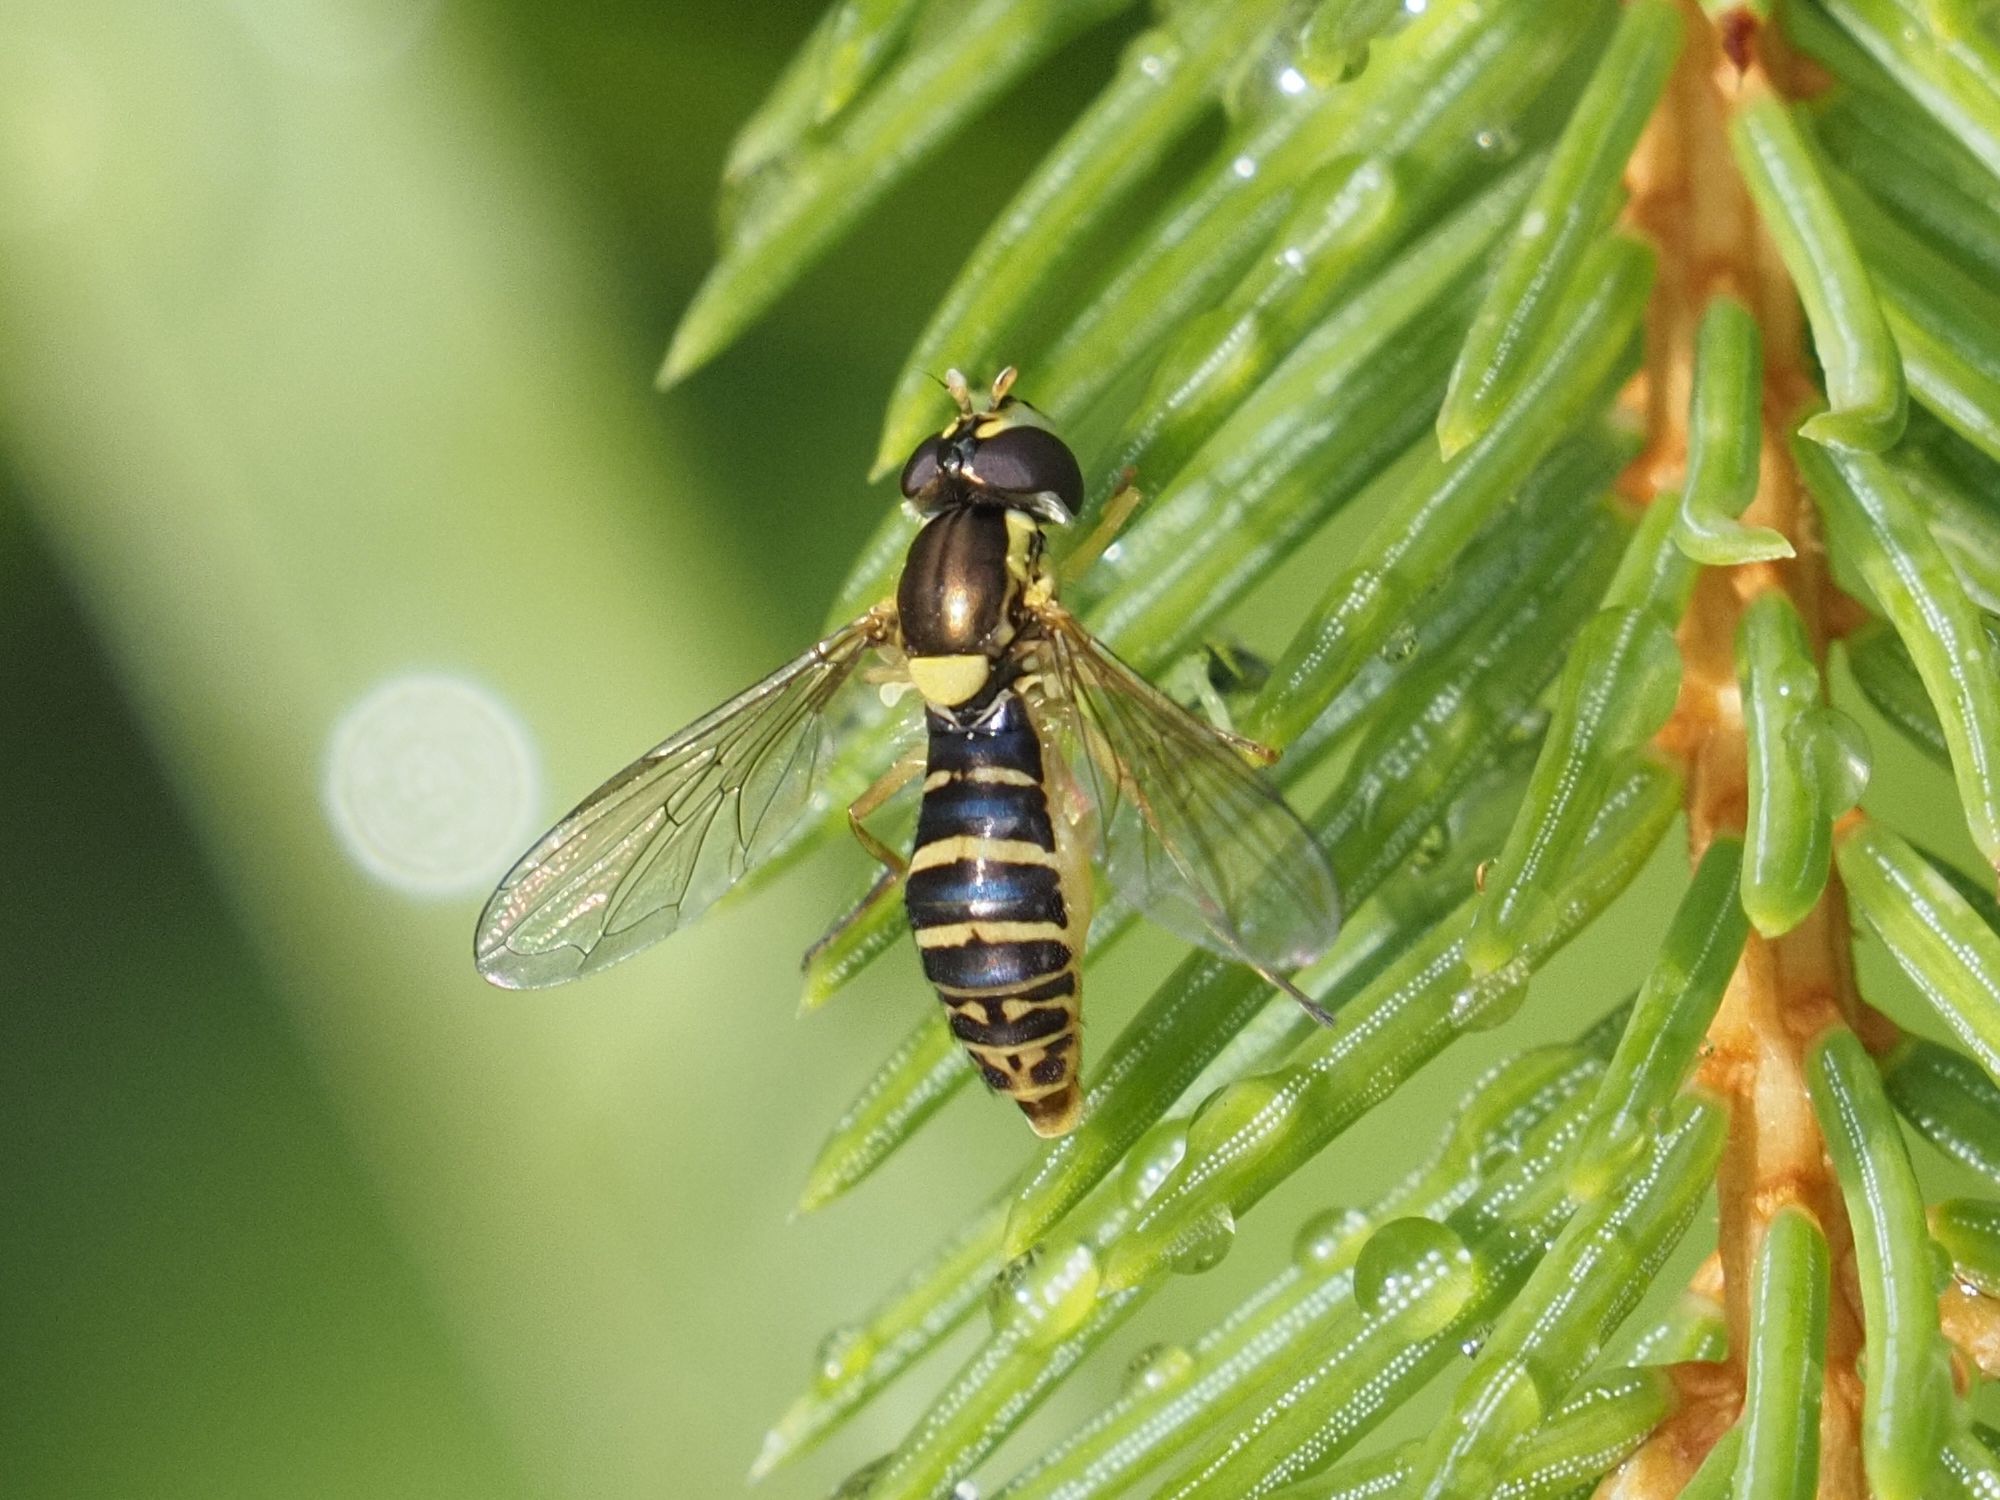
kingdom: Animalia
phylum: Arthropoda
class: Insecta
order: Diptera
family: Syrphidae
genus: Sphaerophoria
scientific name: Sphaerophoria
